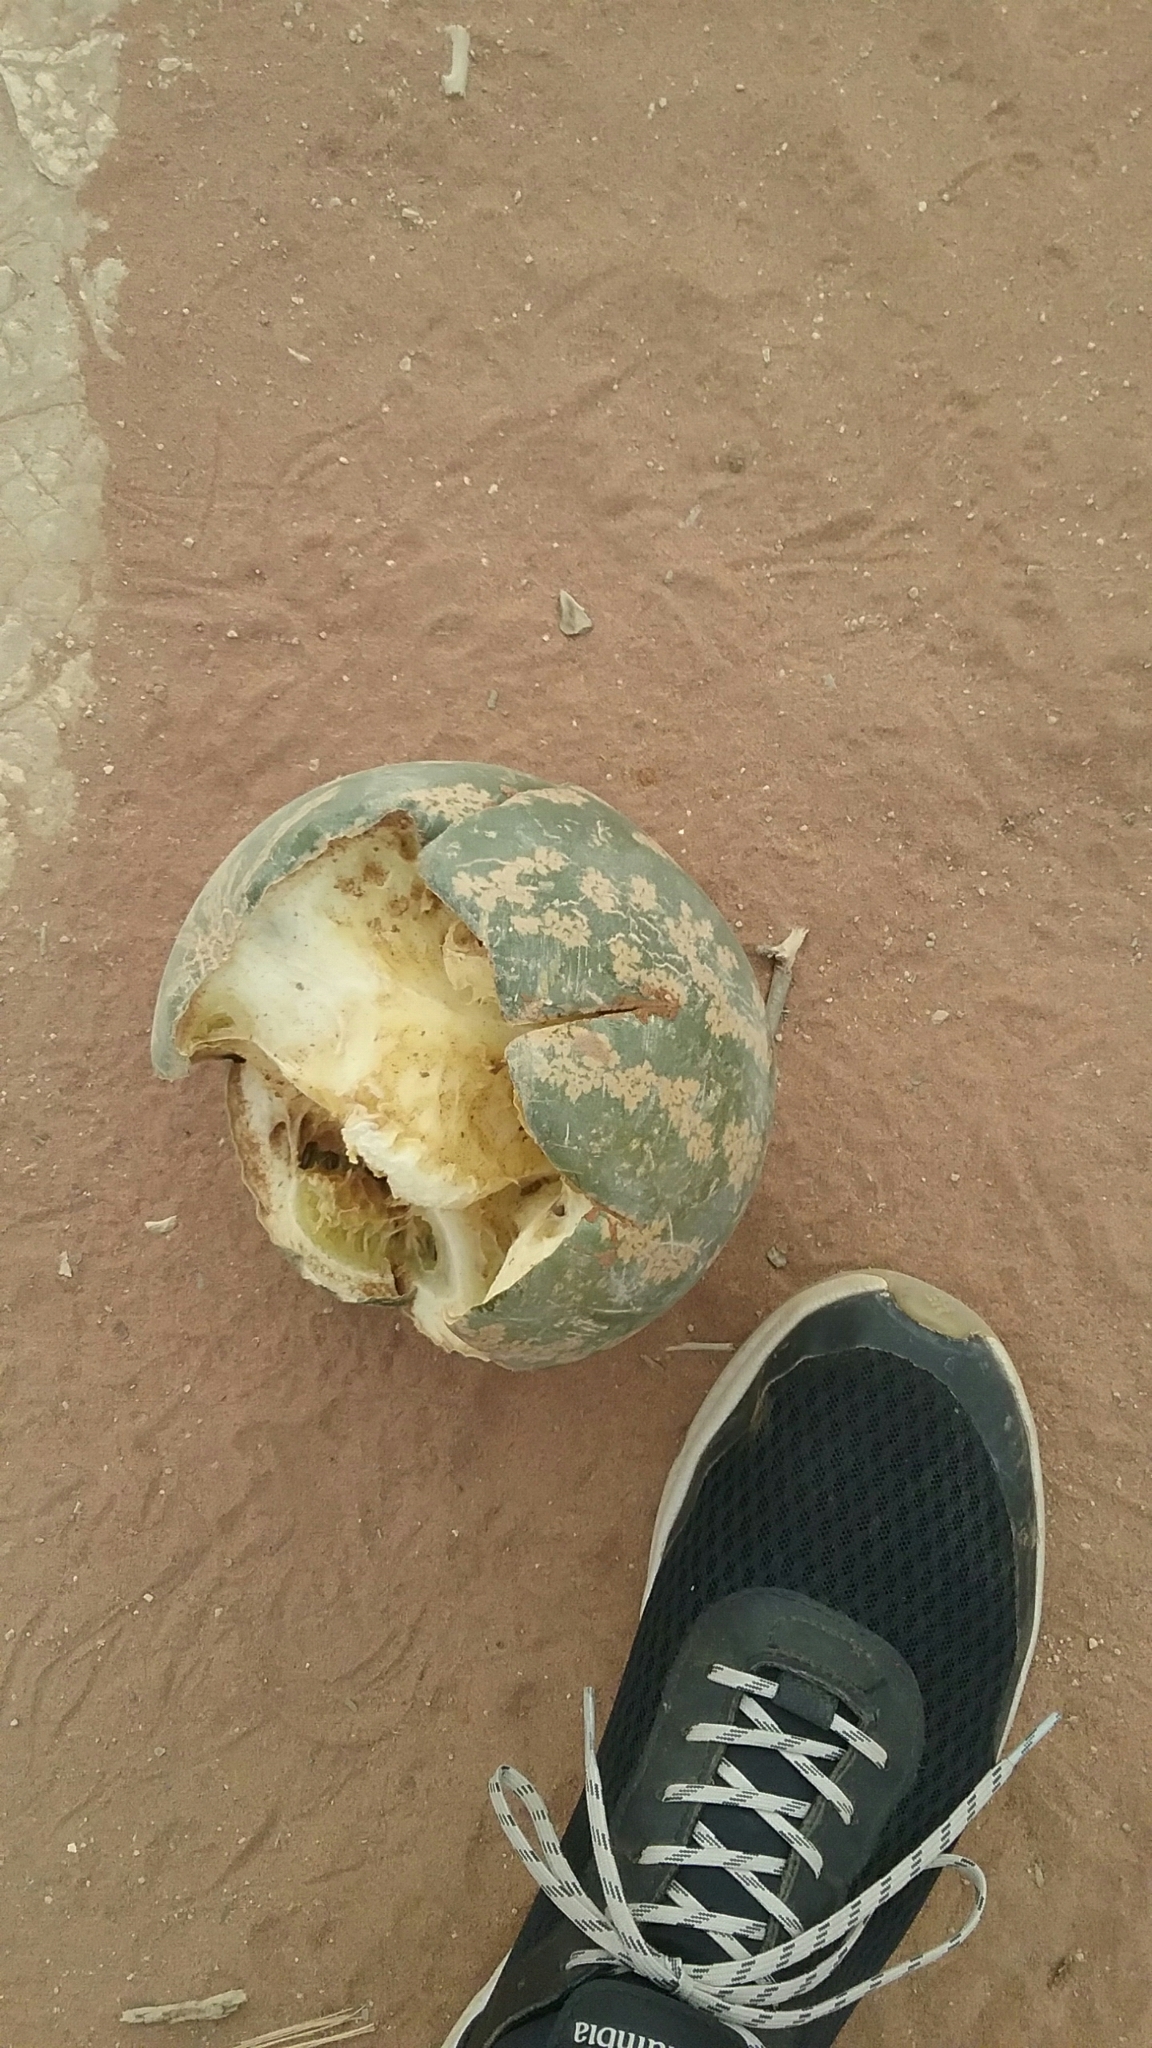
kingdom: Plantae
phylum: Tracheophyta
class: Magnoliopsida
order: Cucurbitales
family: Cucurbitaceae
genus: Citrullus
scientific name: Citrullus amarus
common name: Fodder-melon
